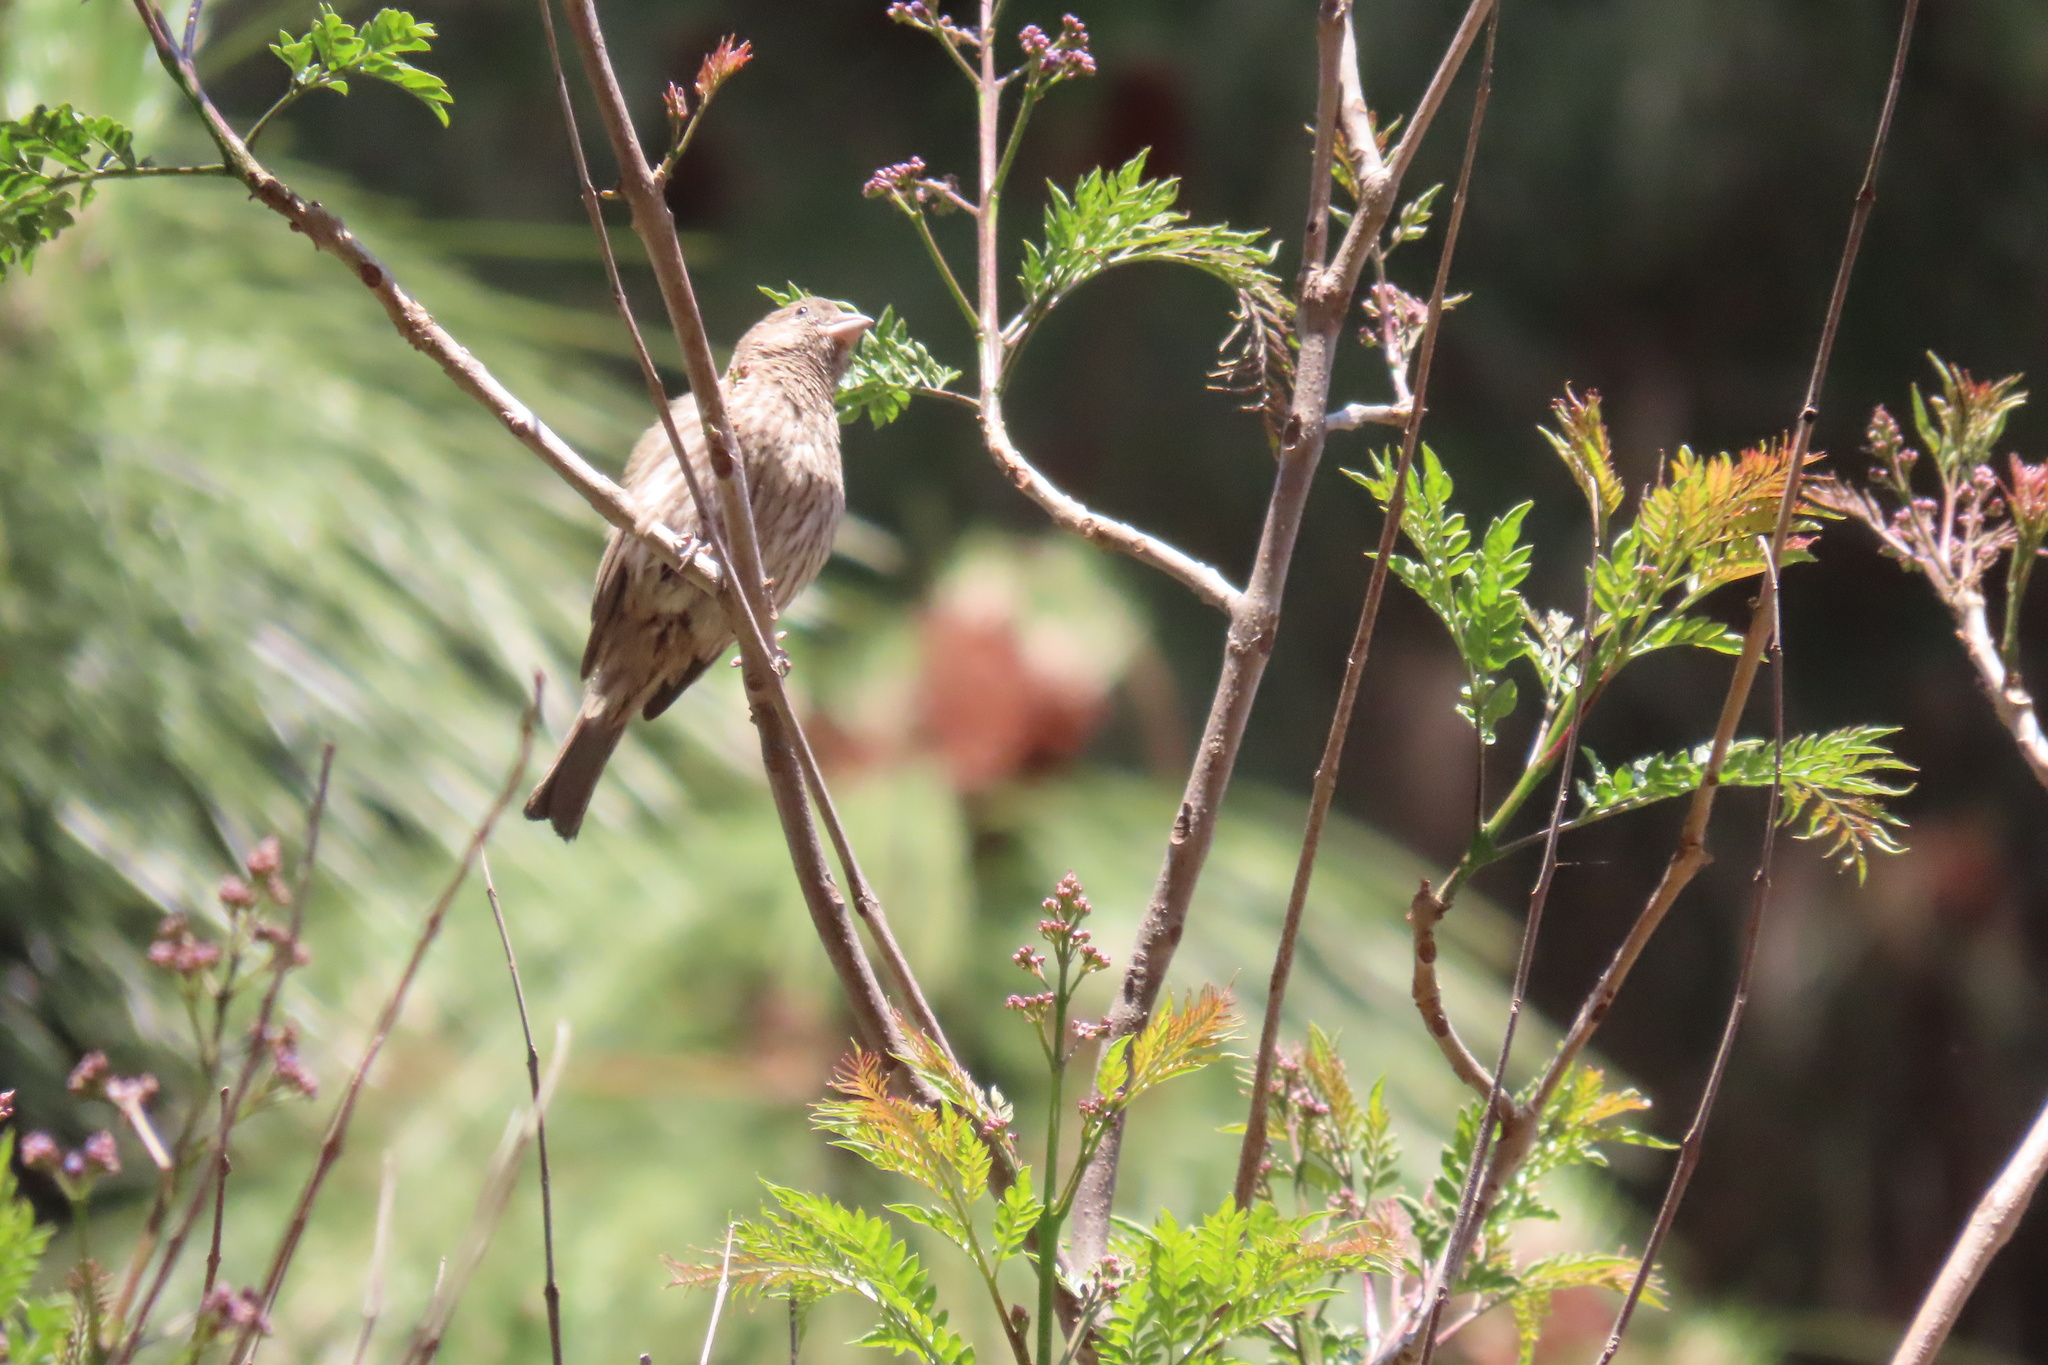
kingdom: Animalia
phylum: Chordata
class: Aves
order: Passeriformes
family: Fringillidae
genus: Haemorhous
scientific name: Haemorhous mexicanus
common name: House finch
